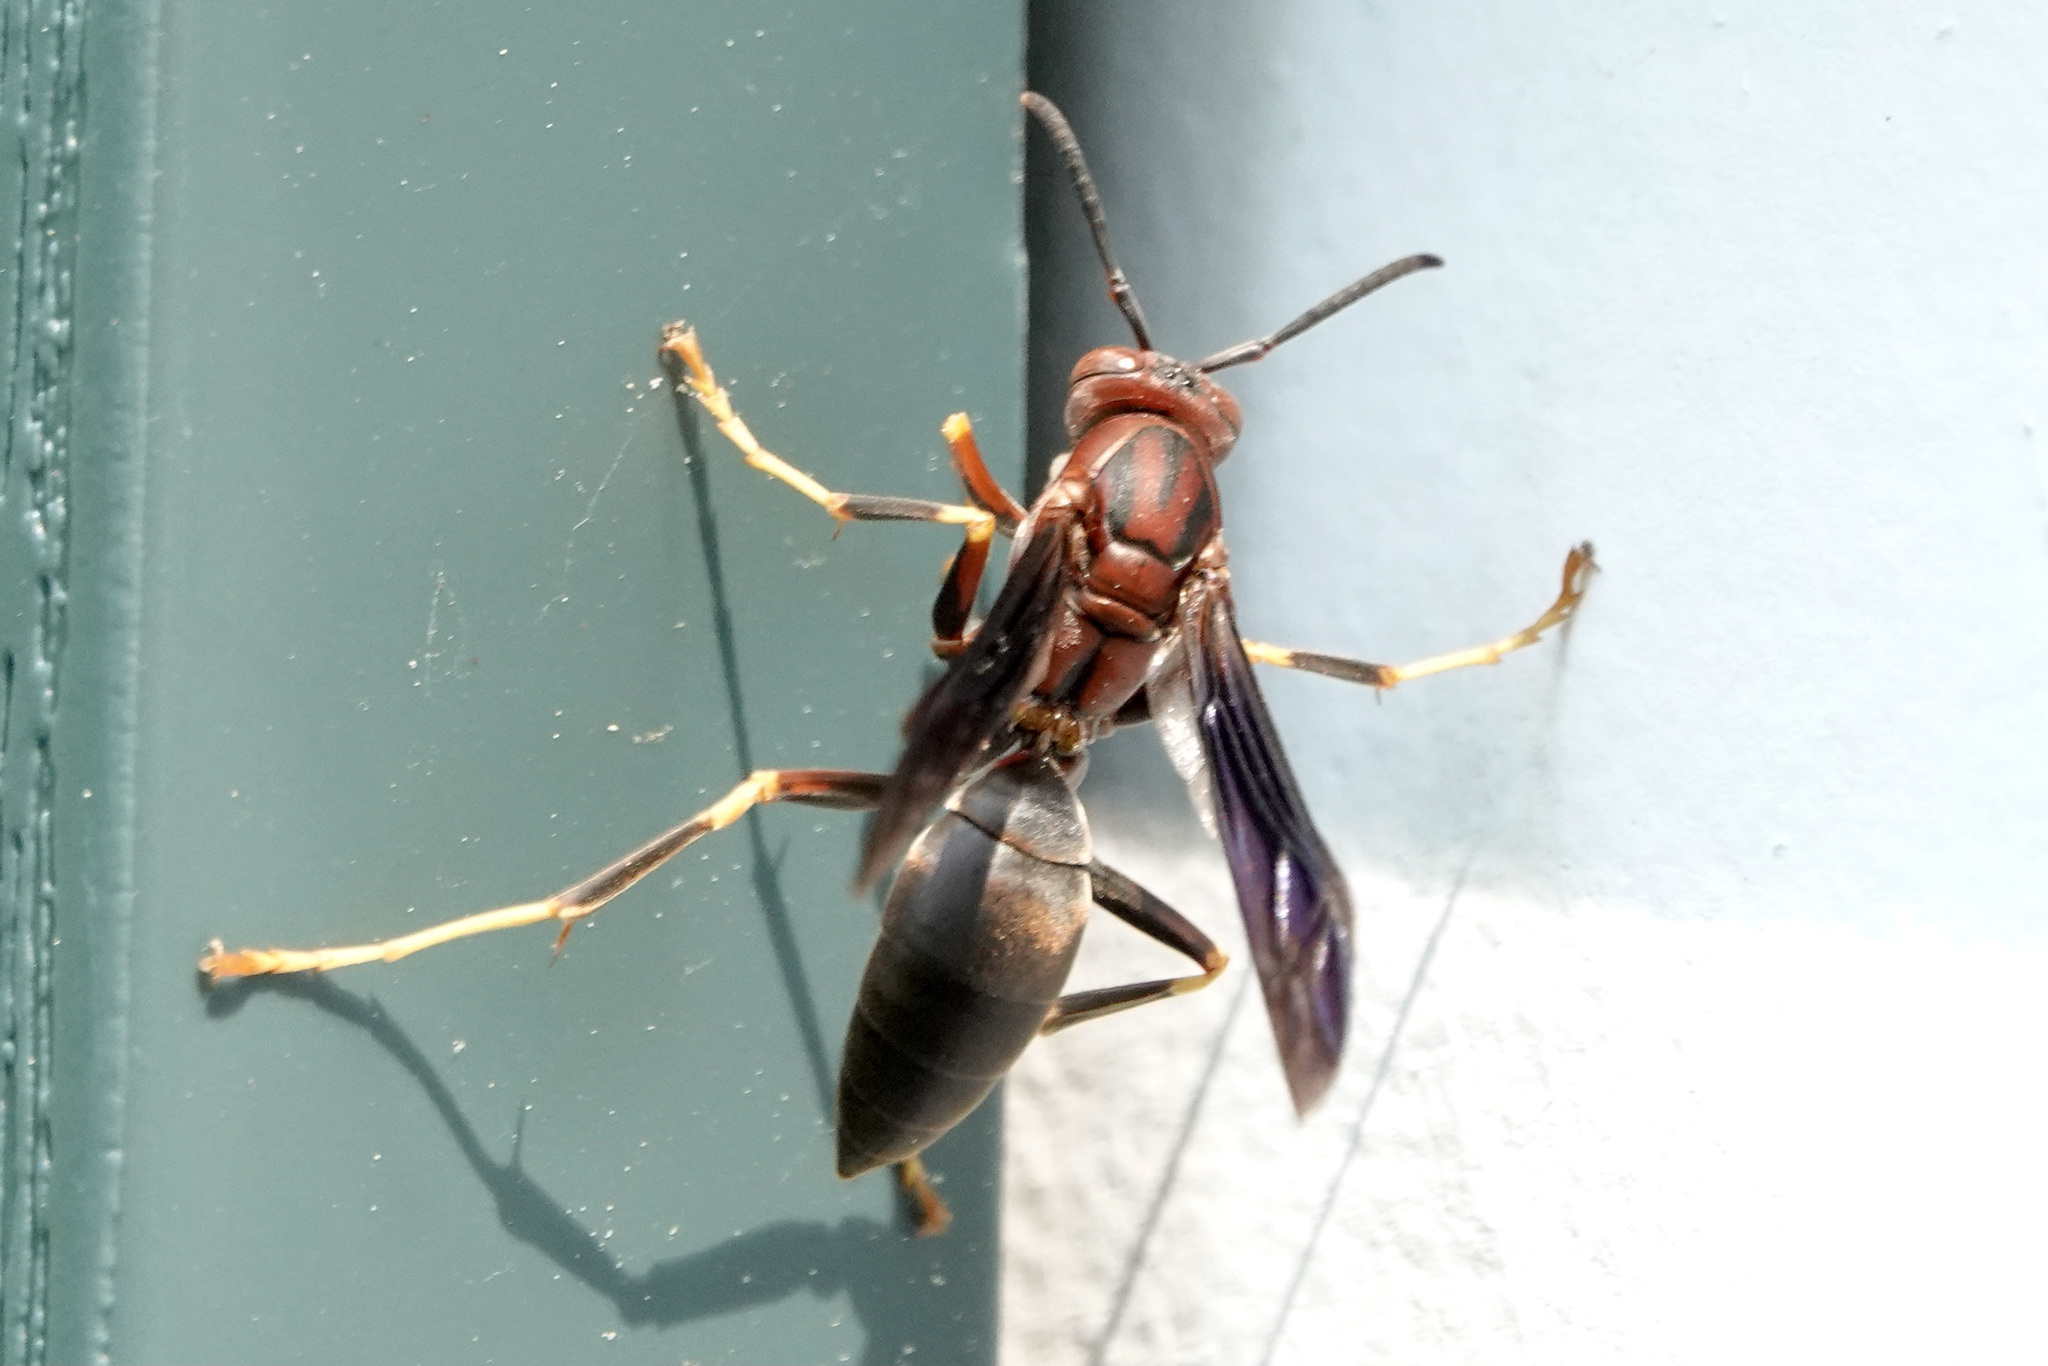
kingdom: Animalia
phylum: Arthropoda
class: Insecta
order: Hymenoptera
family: Eumenidae
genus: Polistes
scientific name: Polistes metricus
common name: Metric paper wasp
